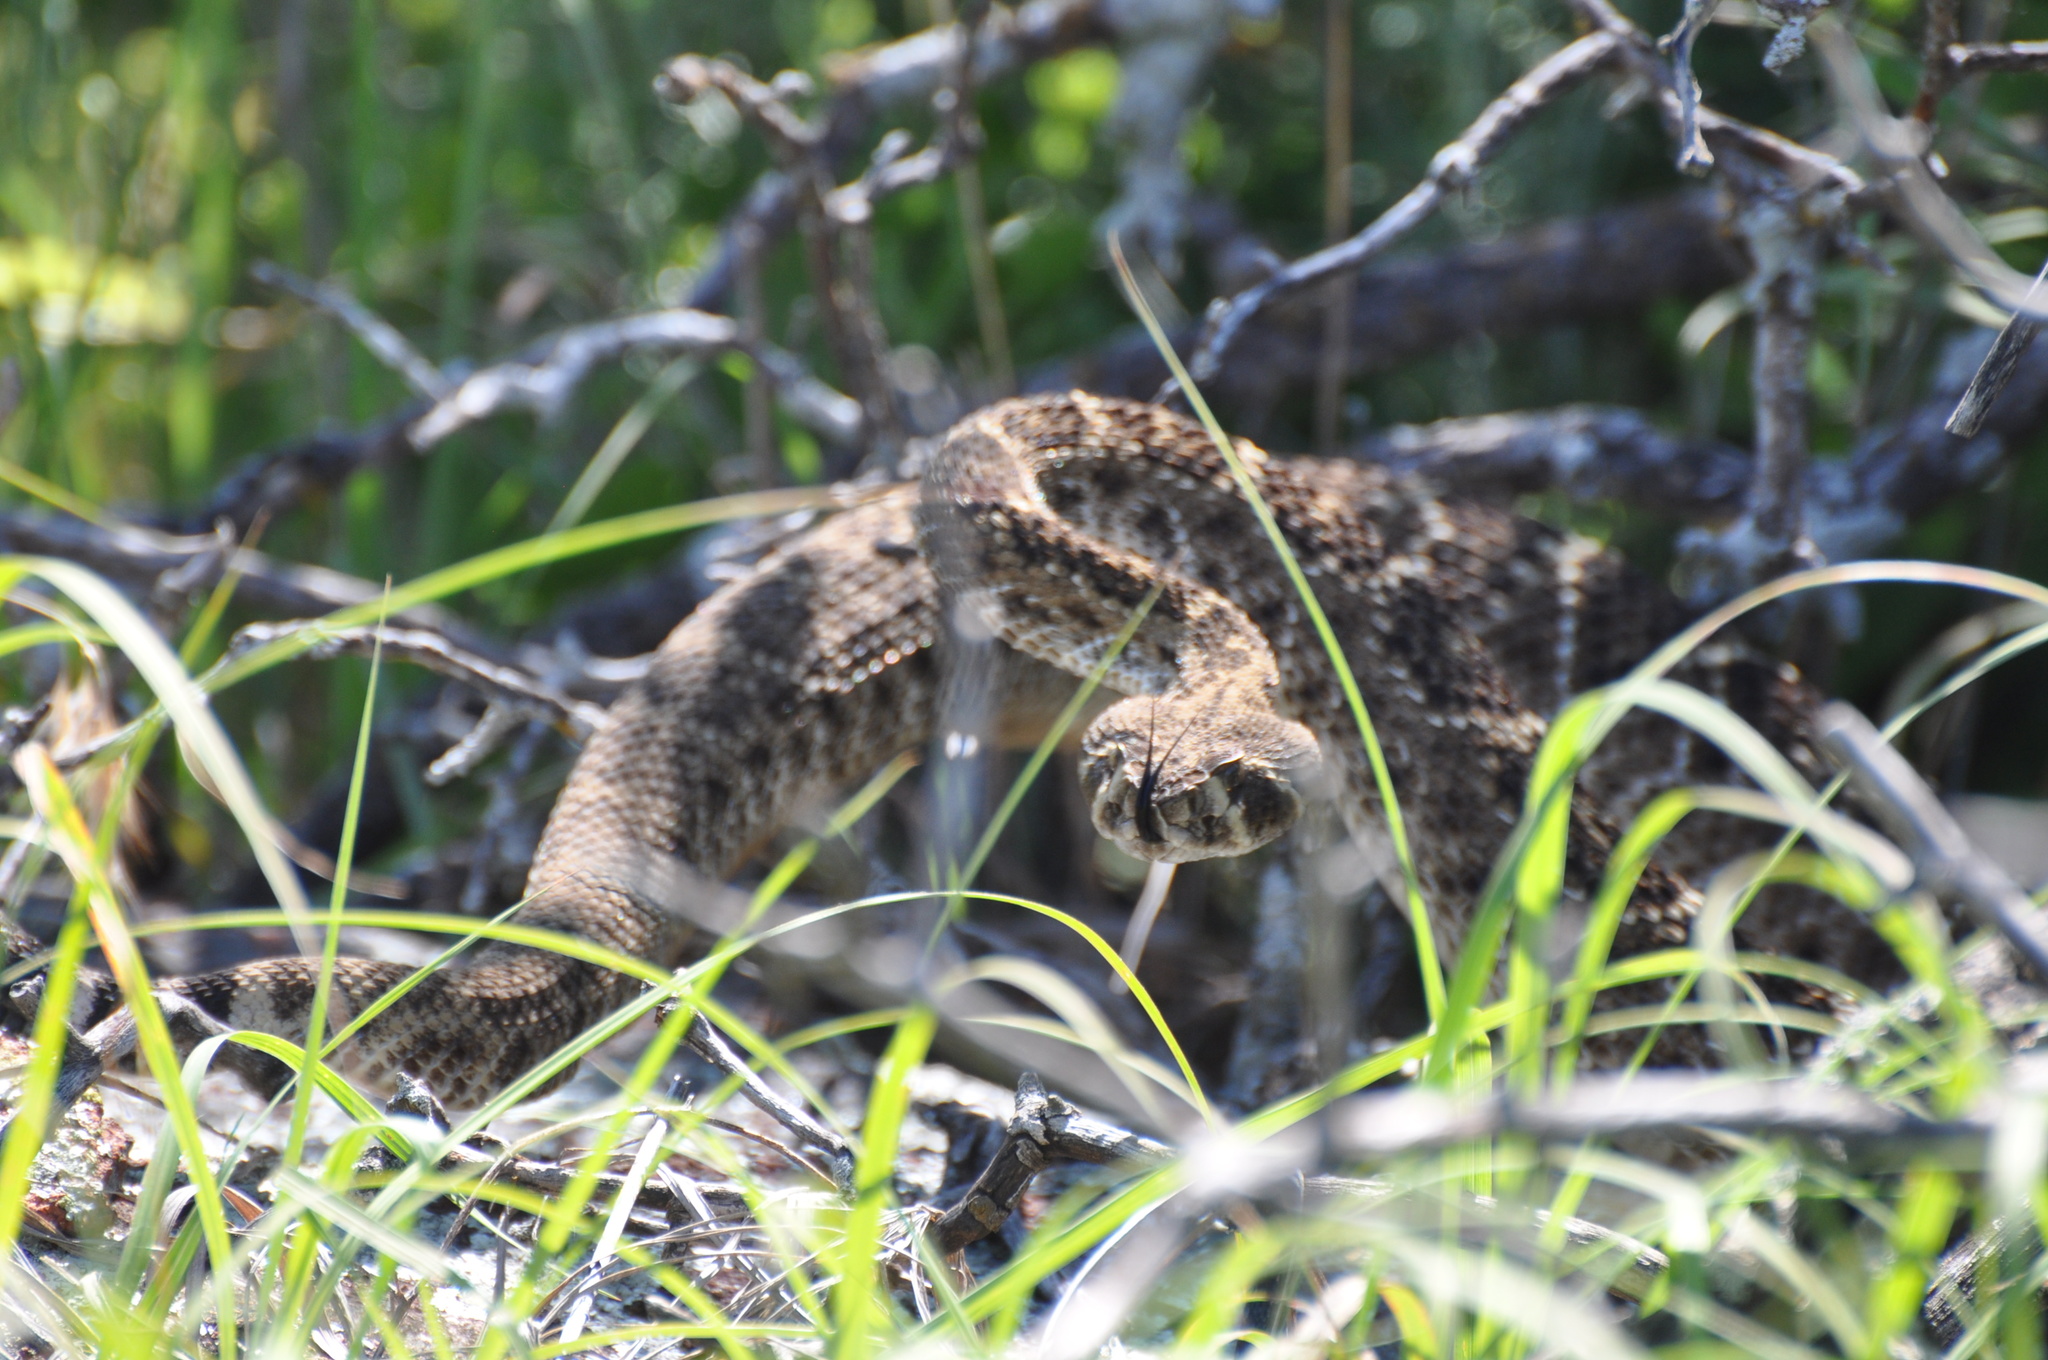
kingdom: Animalia
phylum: Chordata
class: Squamata
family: Viperidae
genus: Crotalus
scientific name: Crotalus atrox
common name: Western diamond-backed rattlesnake
